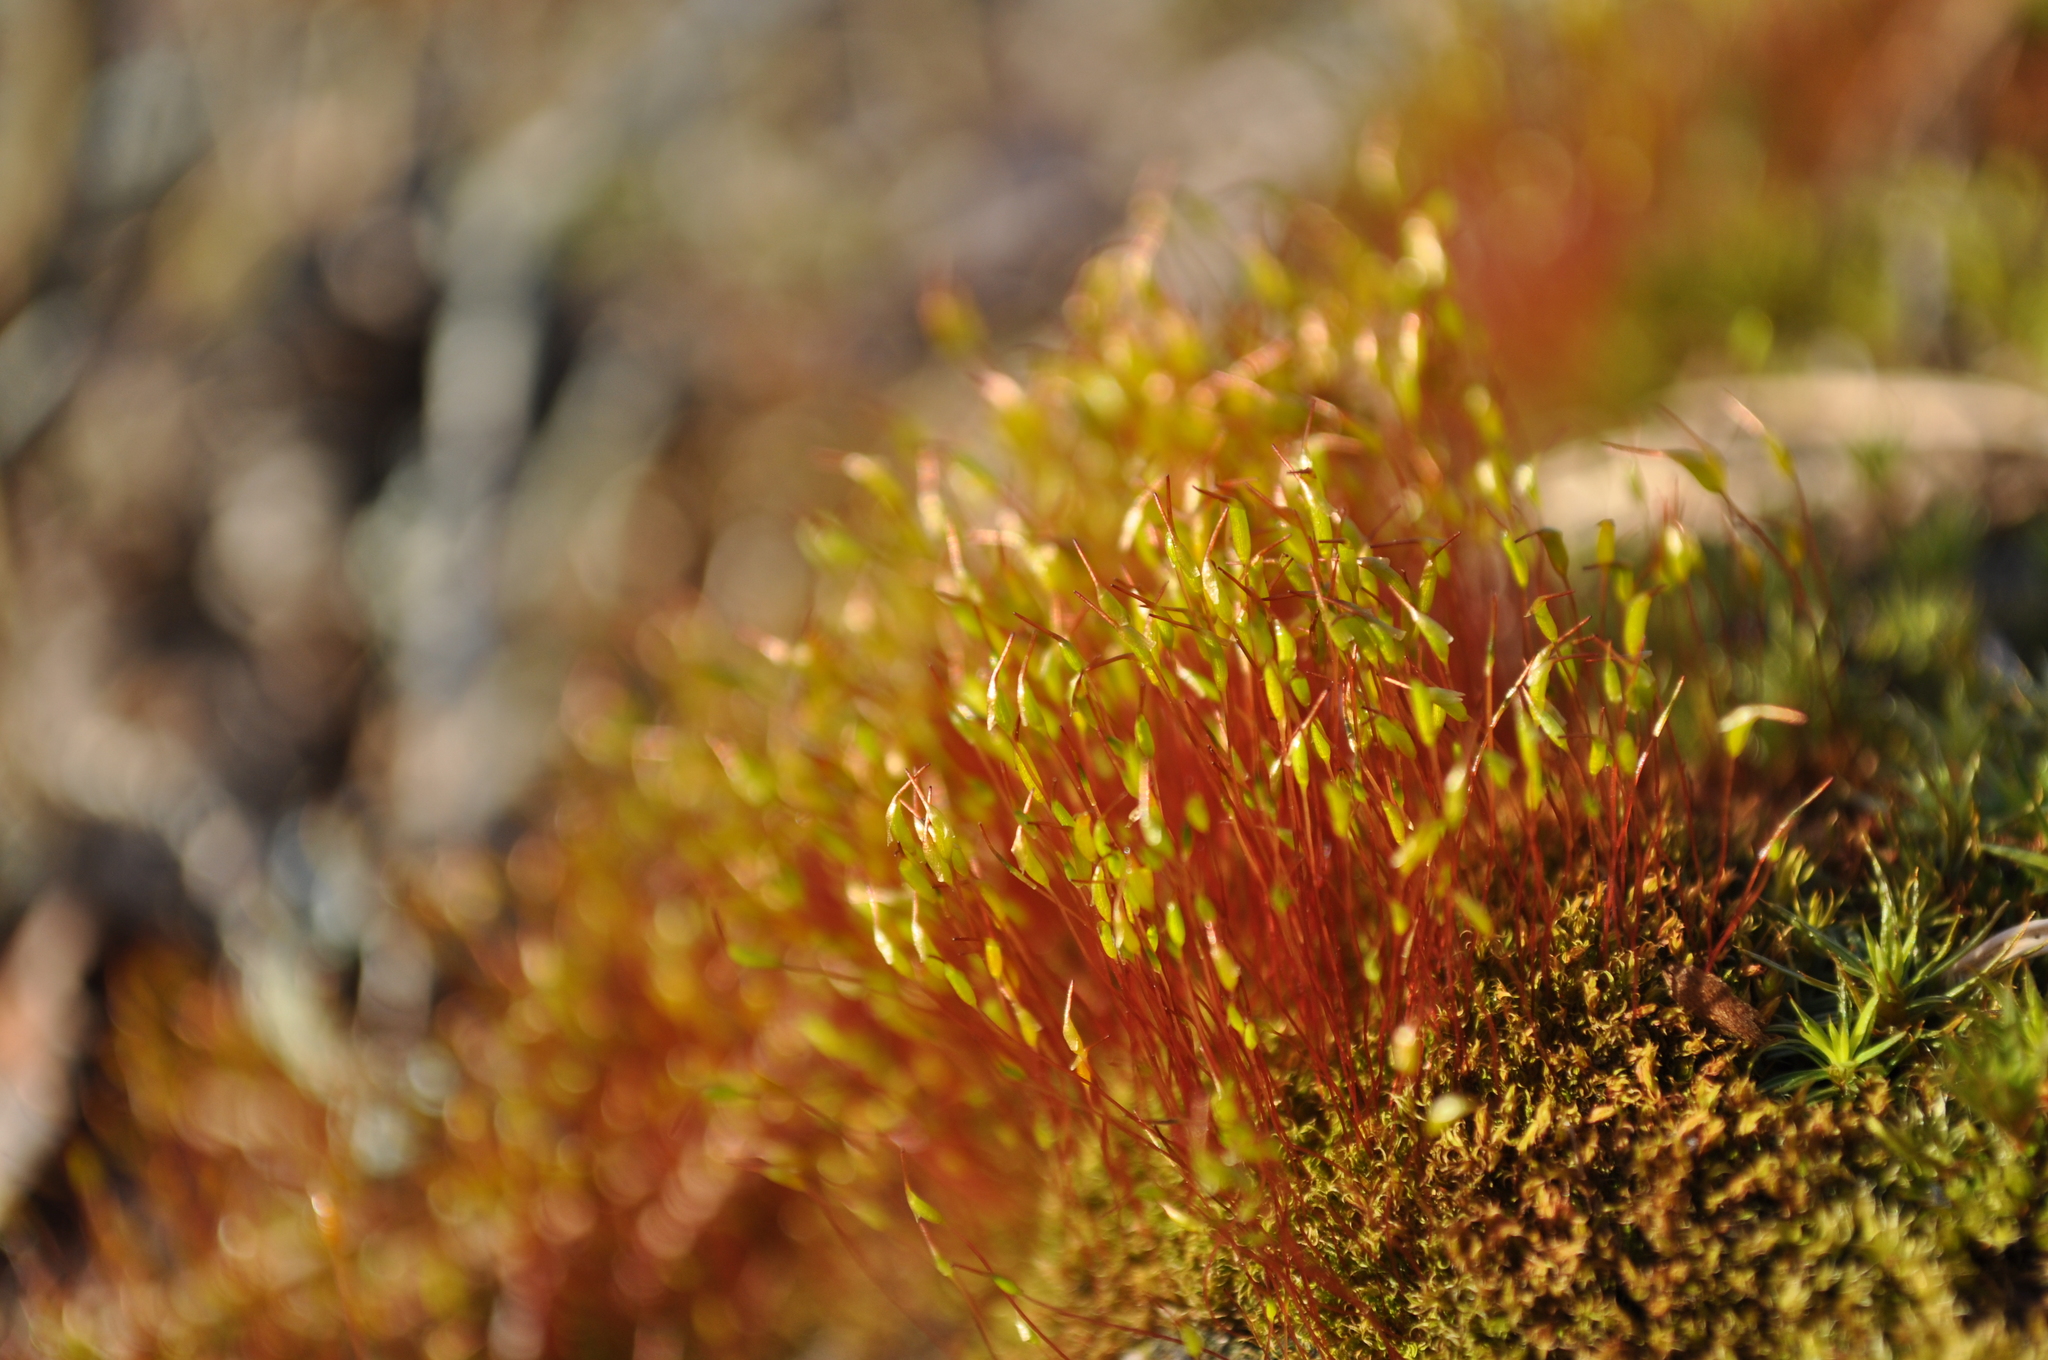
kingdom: Plantae
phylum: Bryophyta
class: Bryopsida
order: Dicranales
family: Ditrichaceae
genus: Ceratodon
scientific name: Ceratodon purpureus
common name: Redshank
